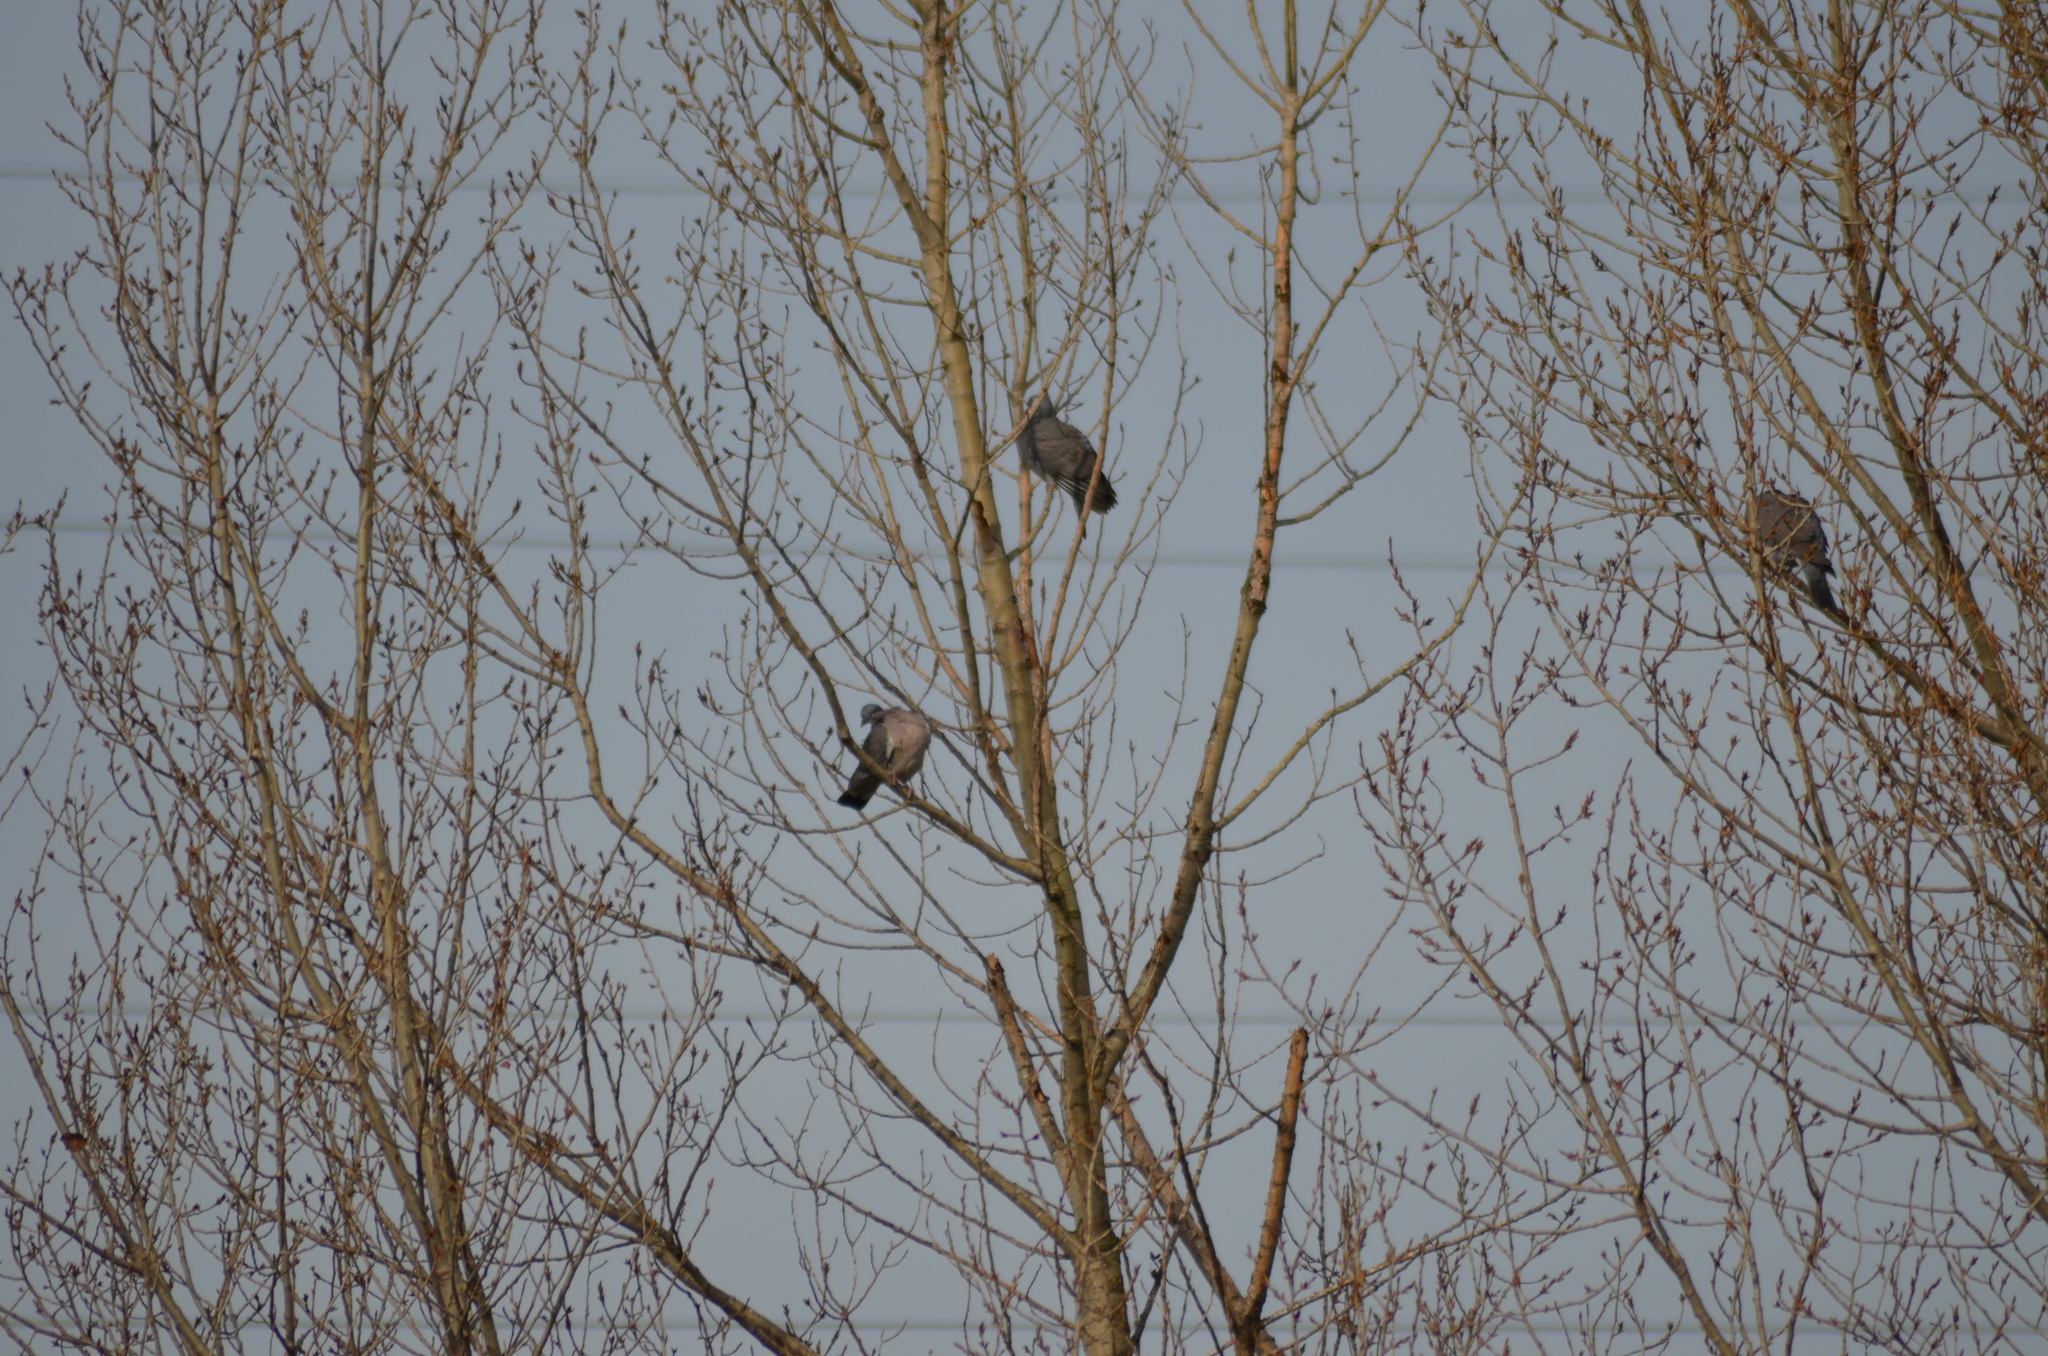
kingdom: Animalia
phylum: Chordata
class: Aves
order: Columbiformes
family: Columbidae
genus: Columba
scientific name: Columba palumbus
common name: Common wood pigeon
